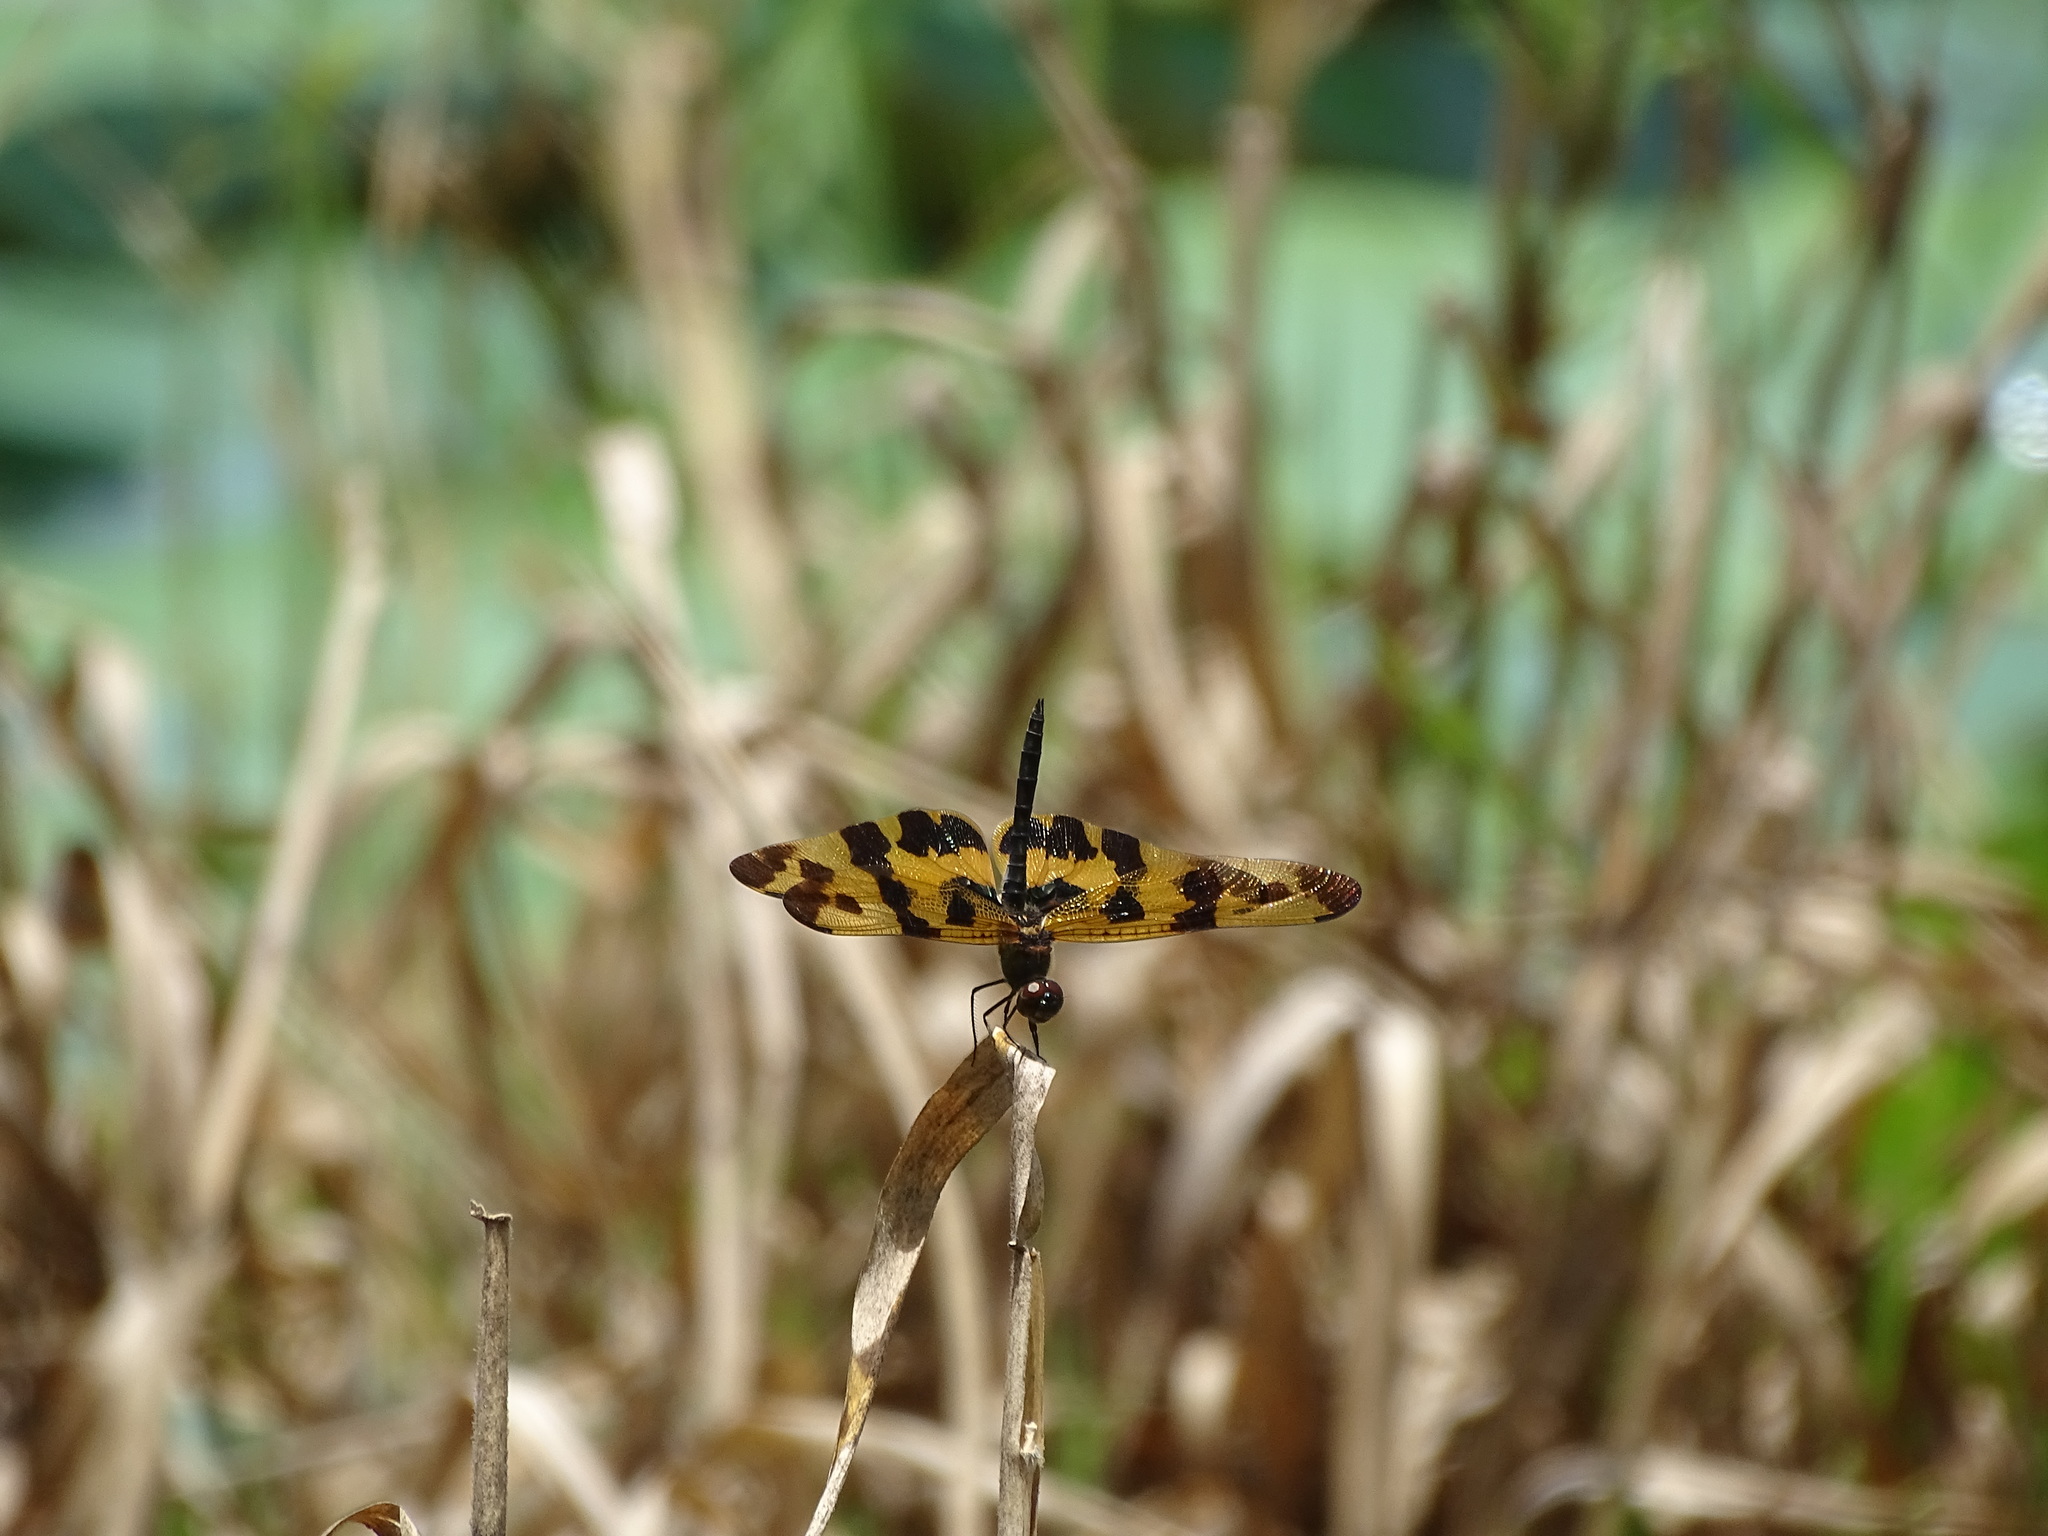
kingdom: Animalia
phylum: Arthropoda
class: Insecta
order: Odonata
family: Libellulidae
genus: Rhyothemis
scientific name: Rhyothemis variegata
